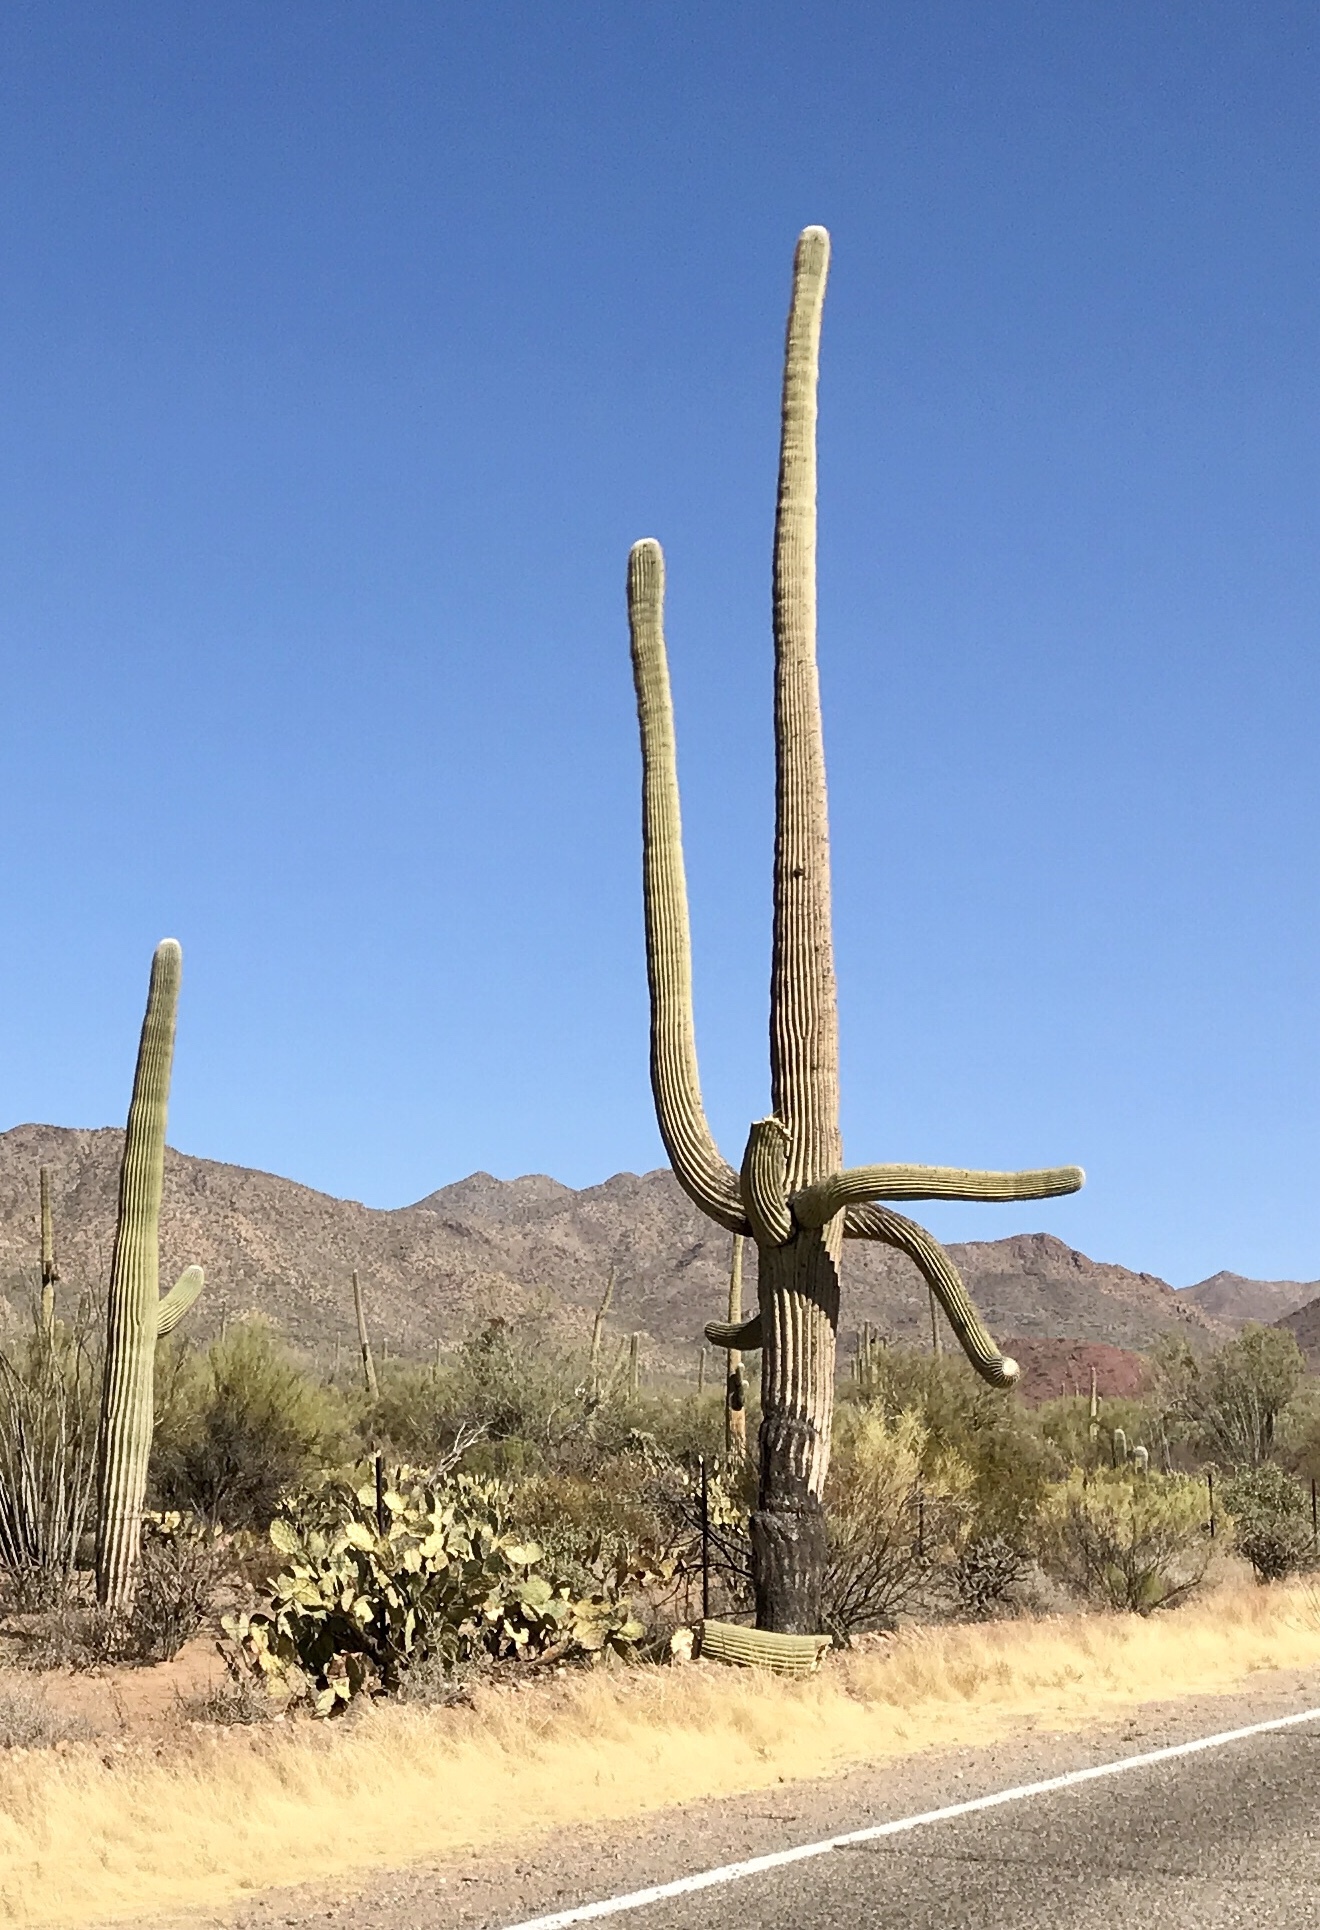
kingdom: Plantae
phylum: Tracheophyta
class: Magnoliopsida
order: Caryophyllales
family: Cactaceae
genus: Carnegiea
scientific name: Carnegiea gigantea
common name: Saguaro
